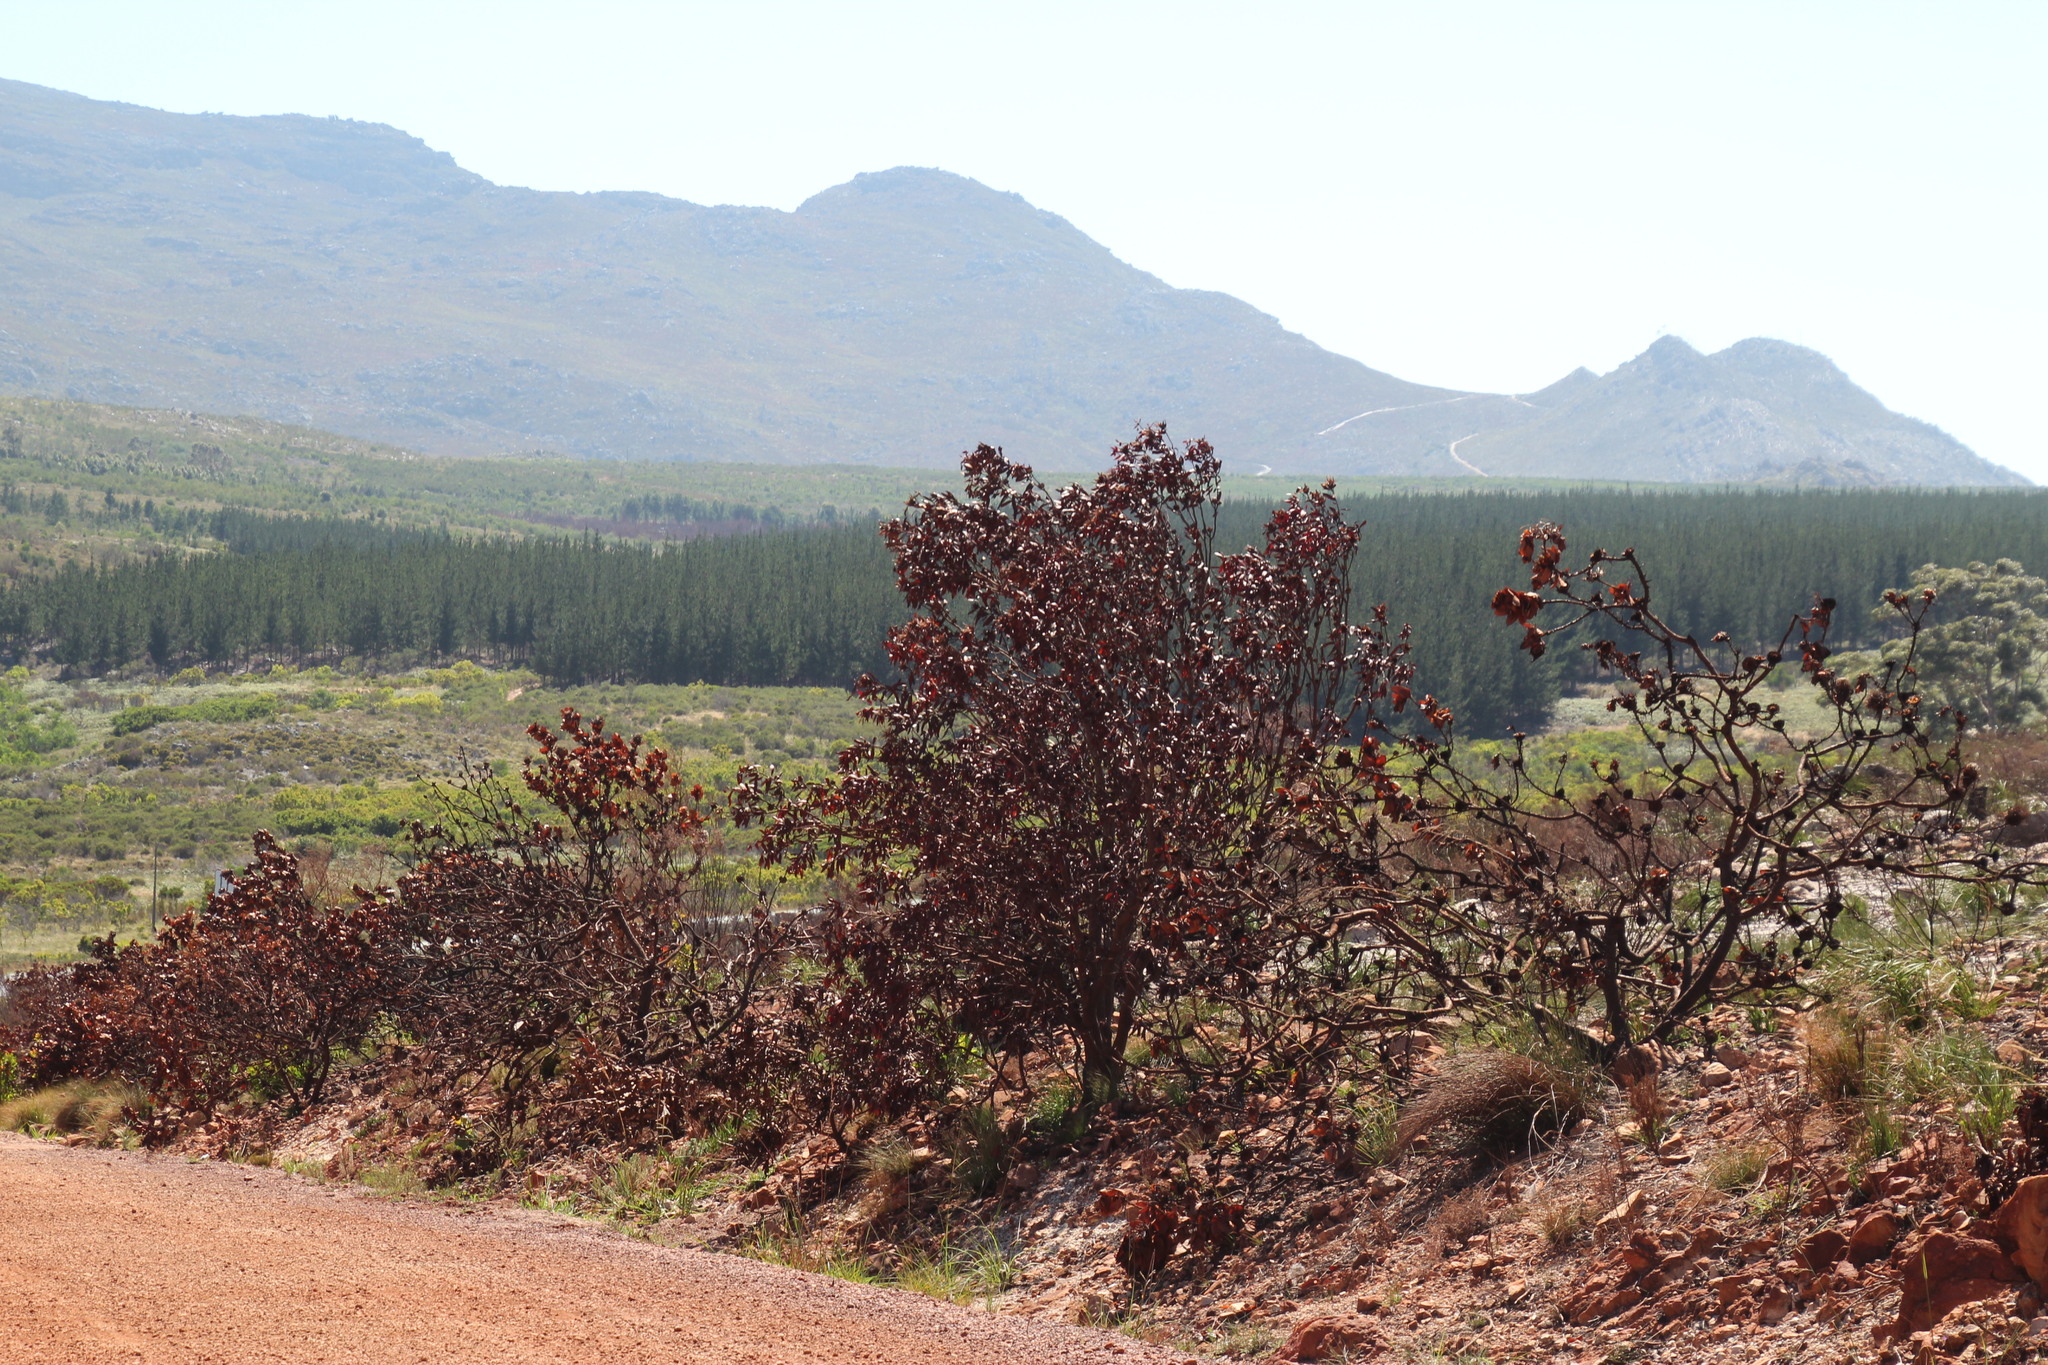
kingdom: Plantae
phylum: Tracheophyta
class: Magnoliopsida
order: Proteales
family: Proteaceae
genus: Protea
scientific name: Protea eximia
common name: Broad-leaved sugarbush
